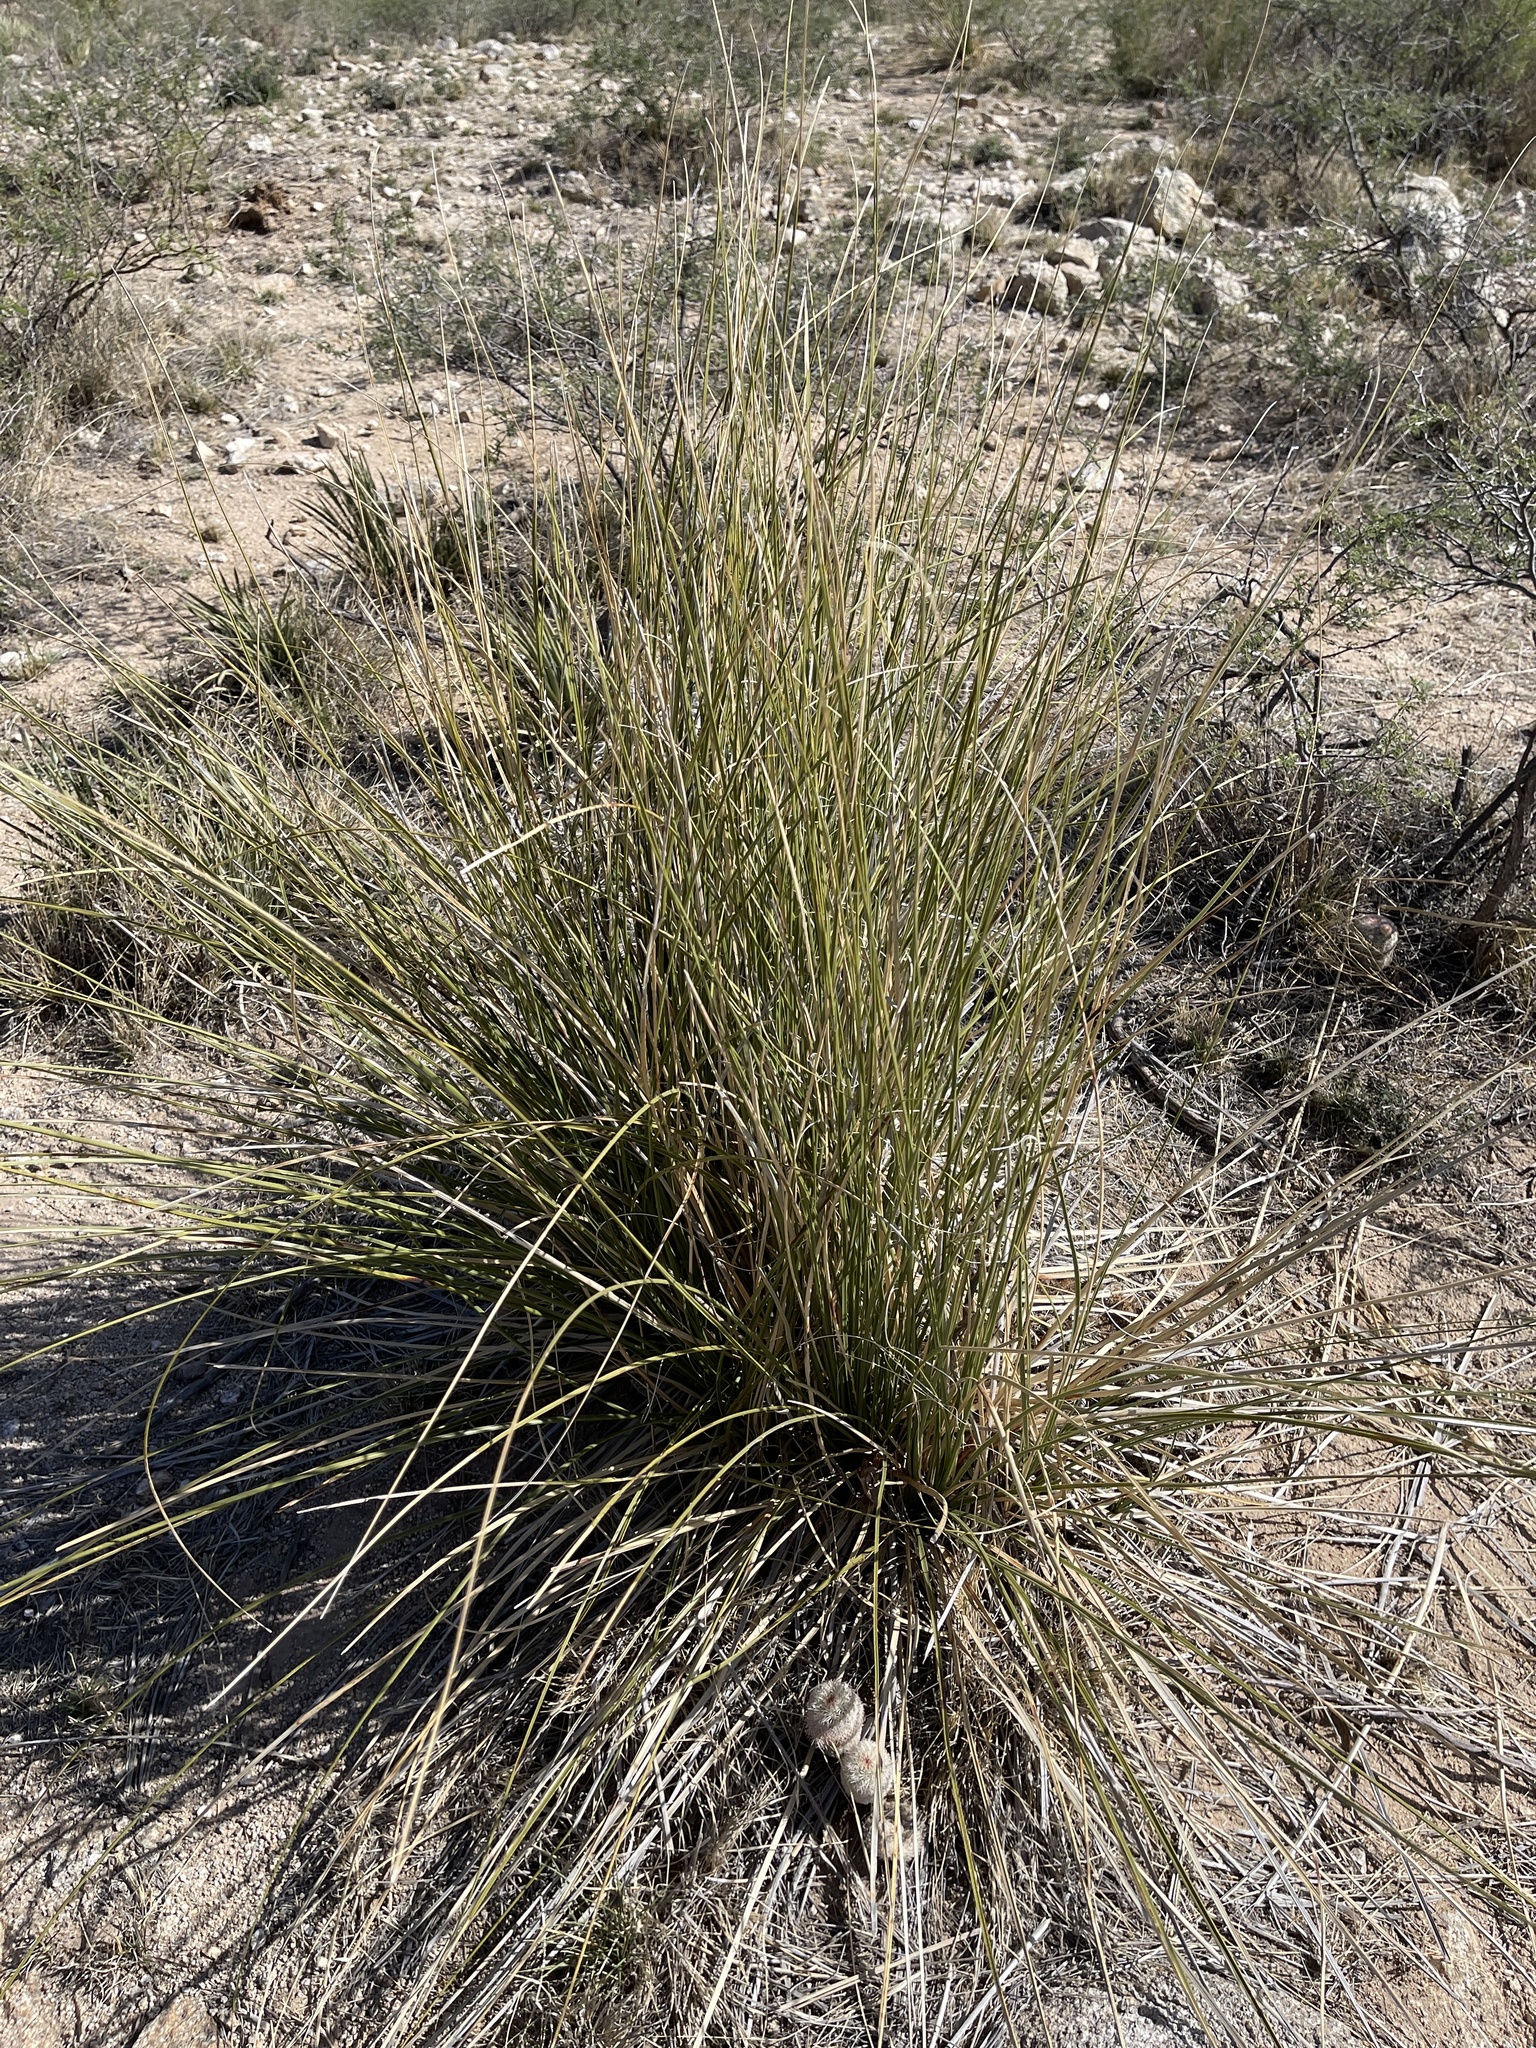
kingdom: Plantae
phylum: Tracheophyta
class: Liliopsida
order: Asparagales
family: Asparagaceae
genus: Nolina
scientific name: Nolina microcarpa
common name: Bear-grass
